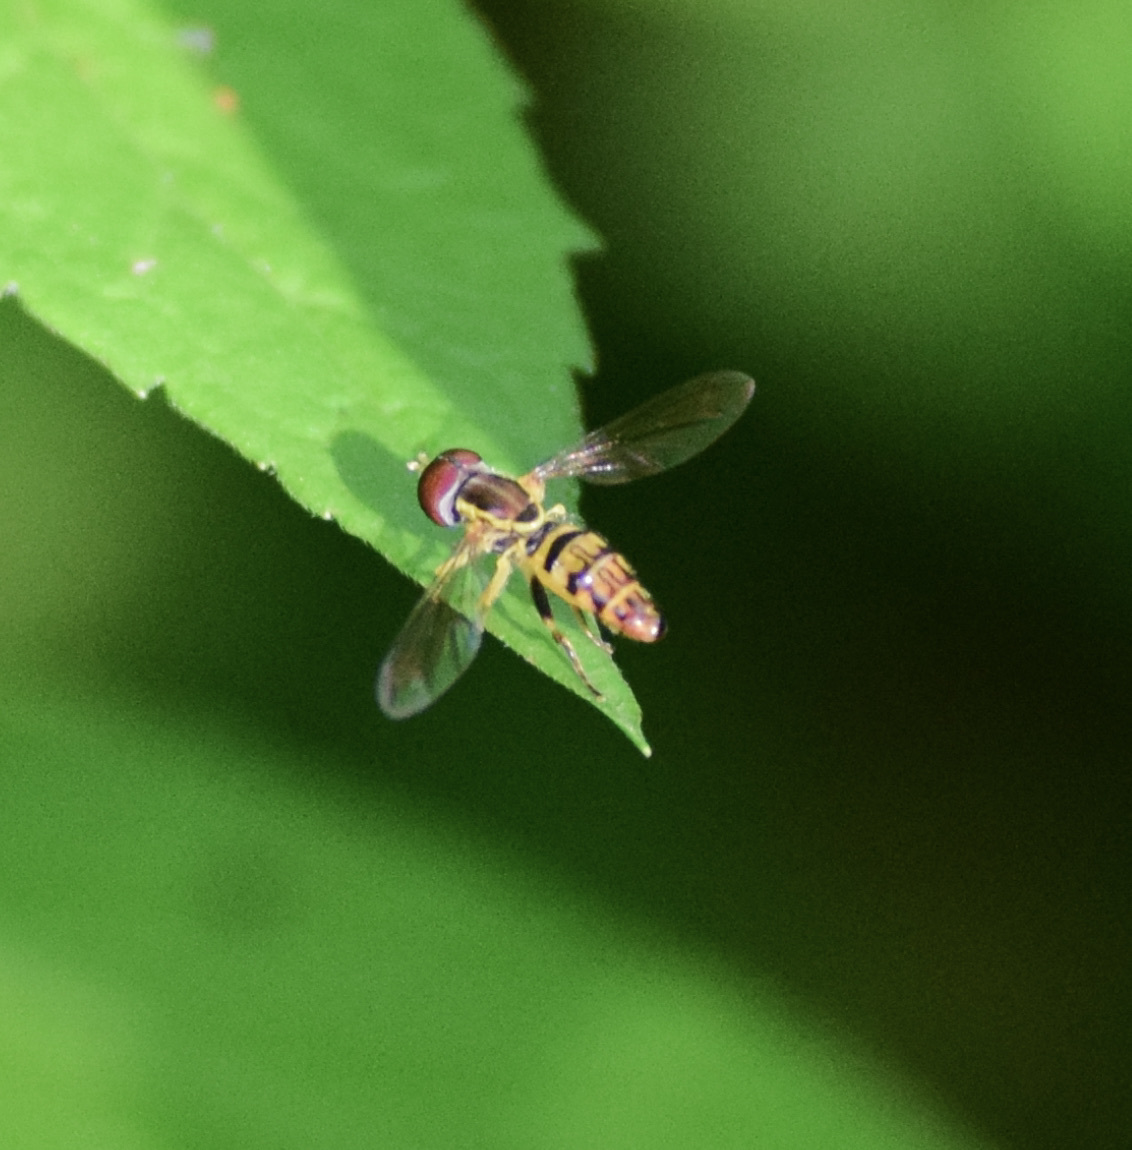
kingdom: Animalia
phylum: Arthropoda
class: Insecta
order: Diptera
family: Syrphidae
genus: Toxomerus
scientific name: Toxomerus geminatus
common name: Eastern calligrapher
